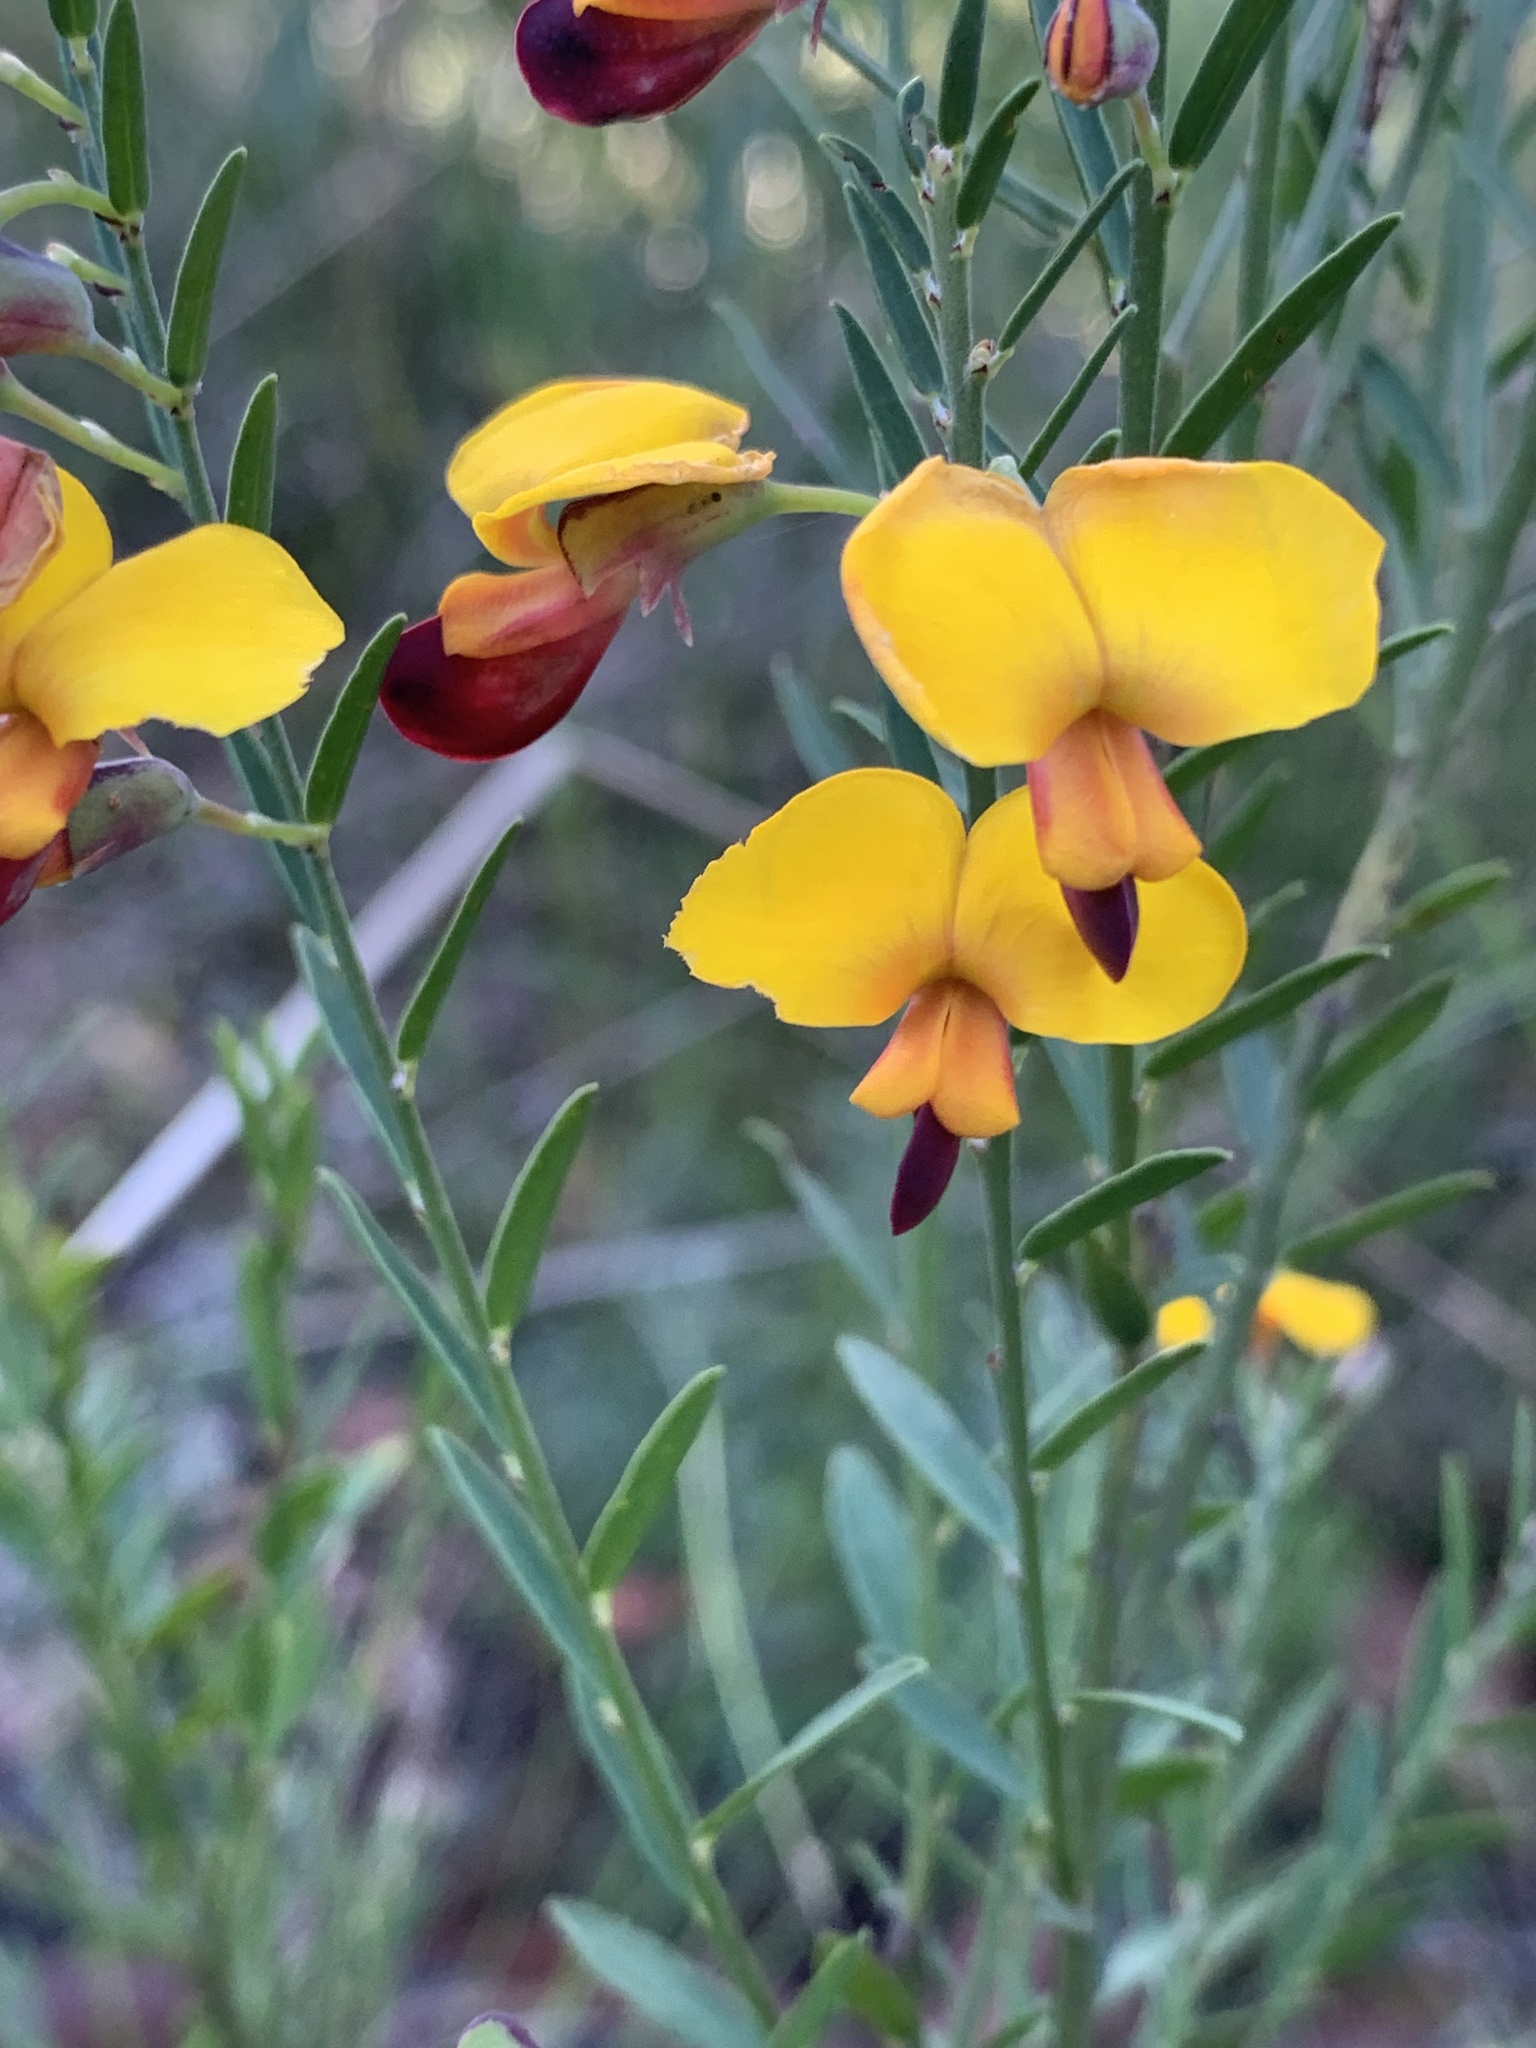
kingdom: Plantae
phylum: Tracheophyta
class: Magnoliopsida
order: Fabales
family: Fabaceae
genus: Bossiaea
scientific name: Bossiaea heterophylla
